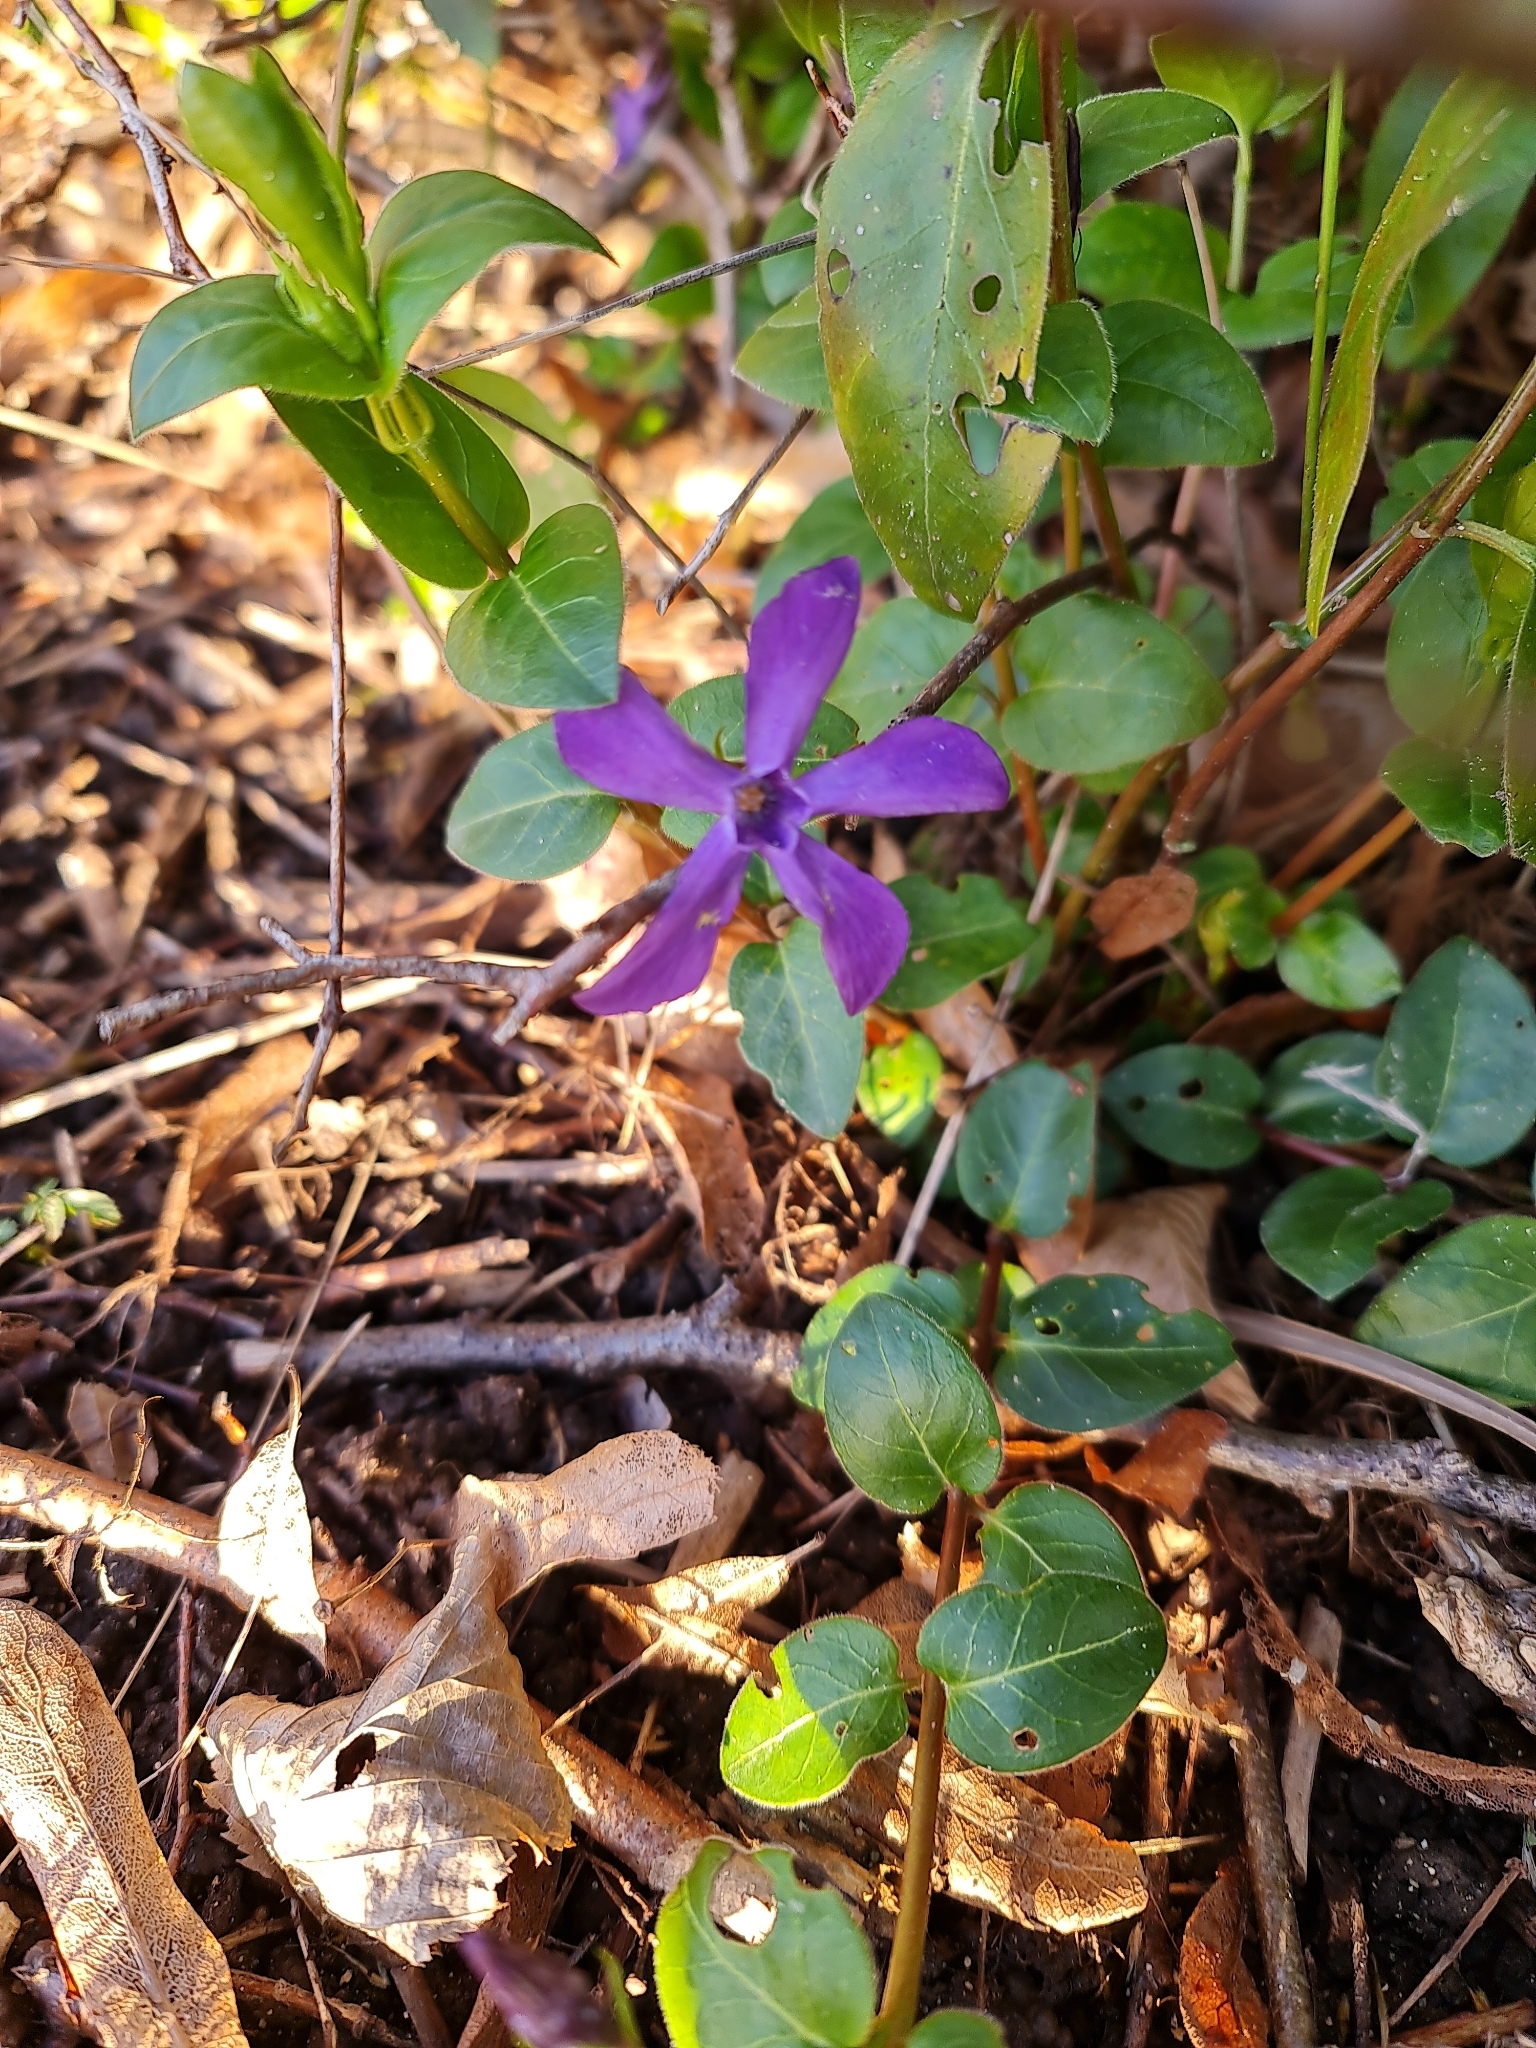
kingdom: Plantae
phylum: Tracheophyta
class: Magnoliopsida
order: Gentianales
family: Apocynaceae
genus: Vinca
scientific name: Vinca major
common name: Greater periwinkle
